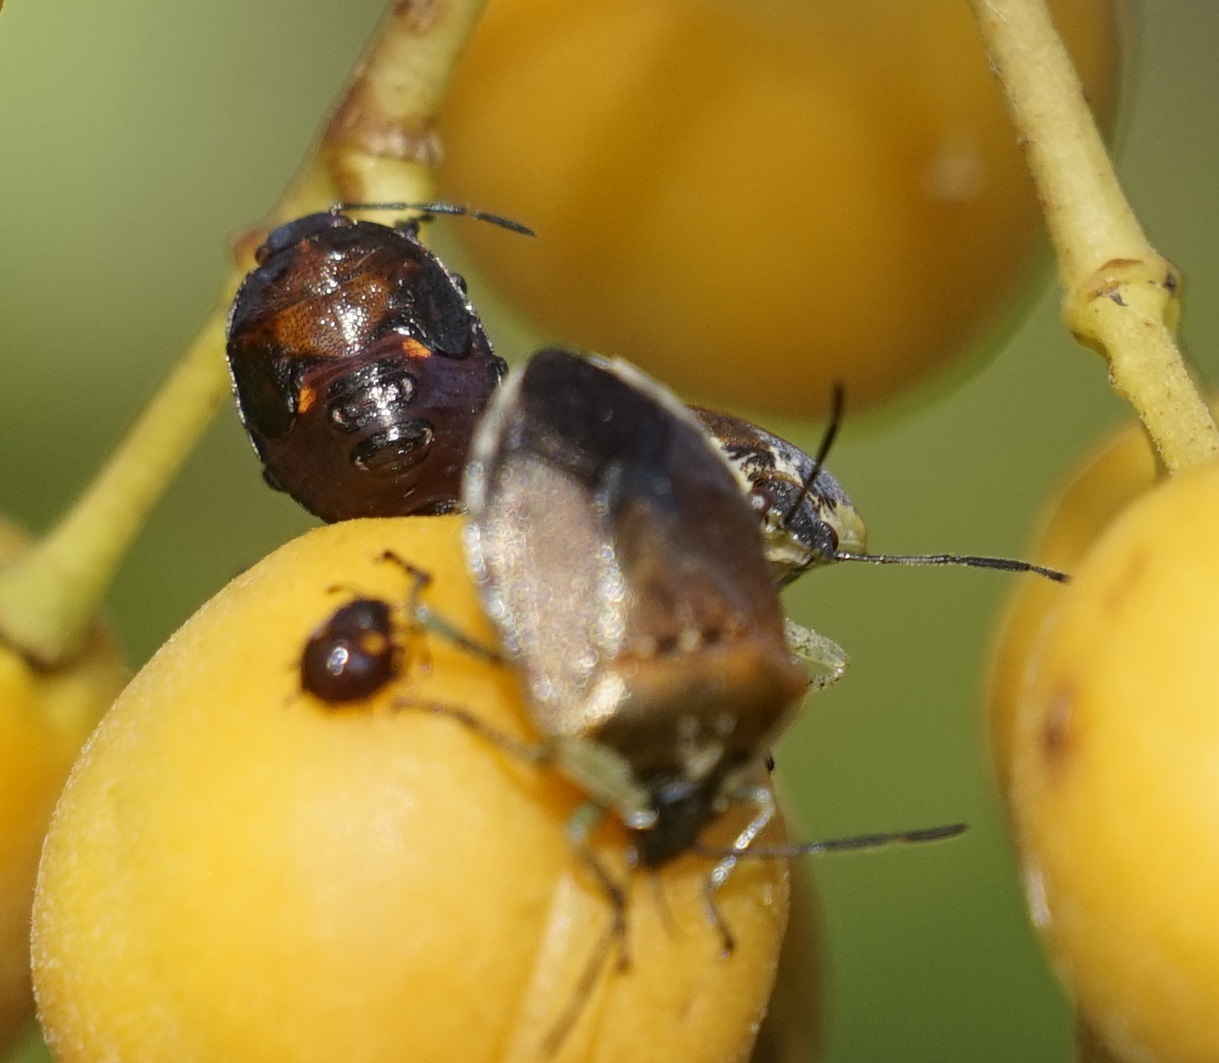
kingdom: Animalia
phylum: Arthropoda
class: Insecta
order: Hemiptera
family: Pentatomidae
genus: Monteithiella
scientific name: Monteithiella
